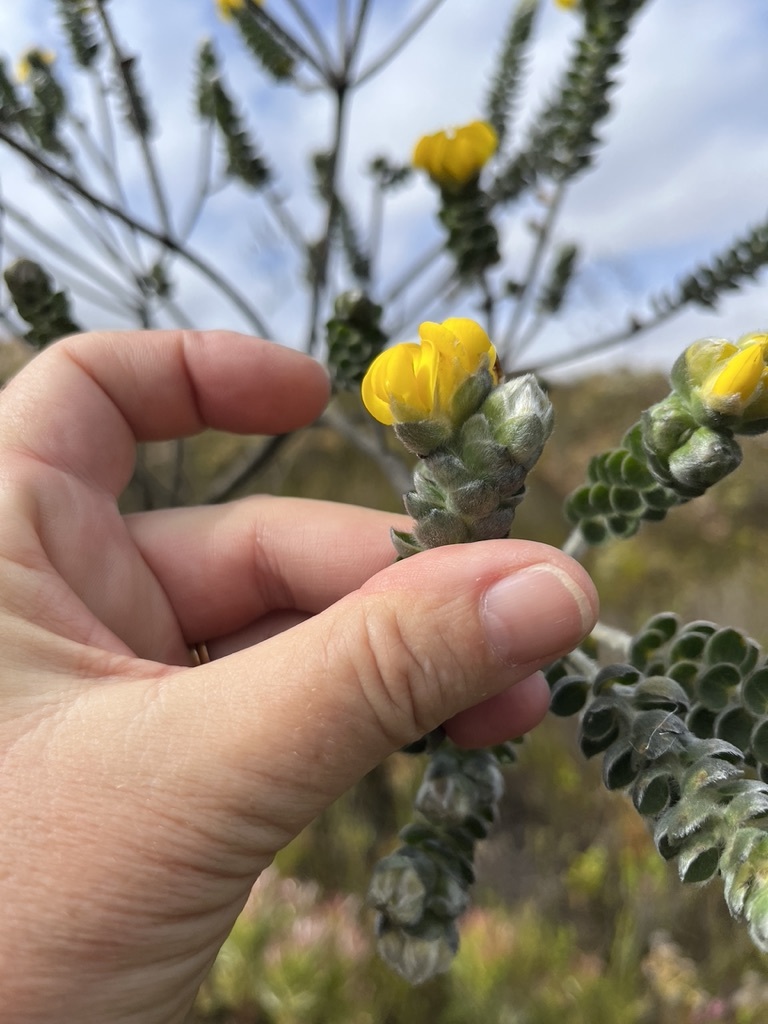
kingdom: Plantae
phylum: Tracheophyta
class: Magnoliopsida
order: Fabales
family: Fabaceae
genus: Liparia
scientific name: Liparia vestita
